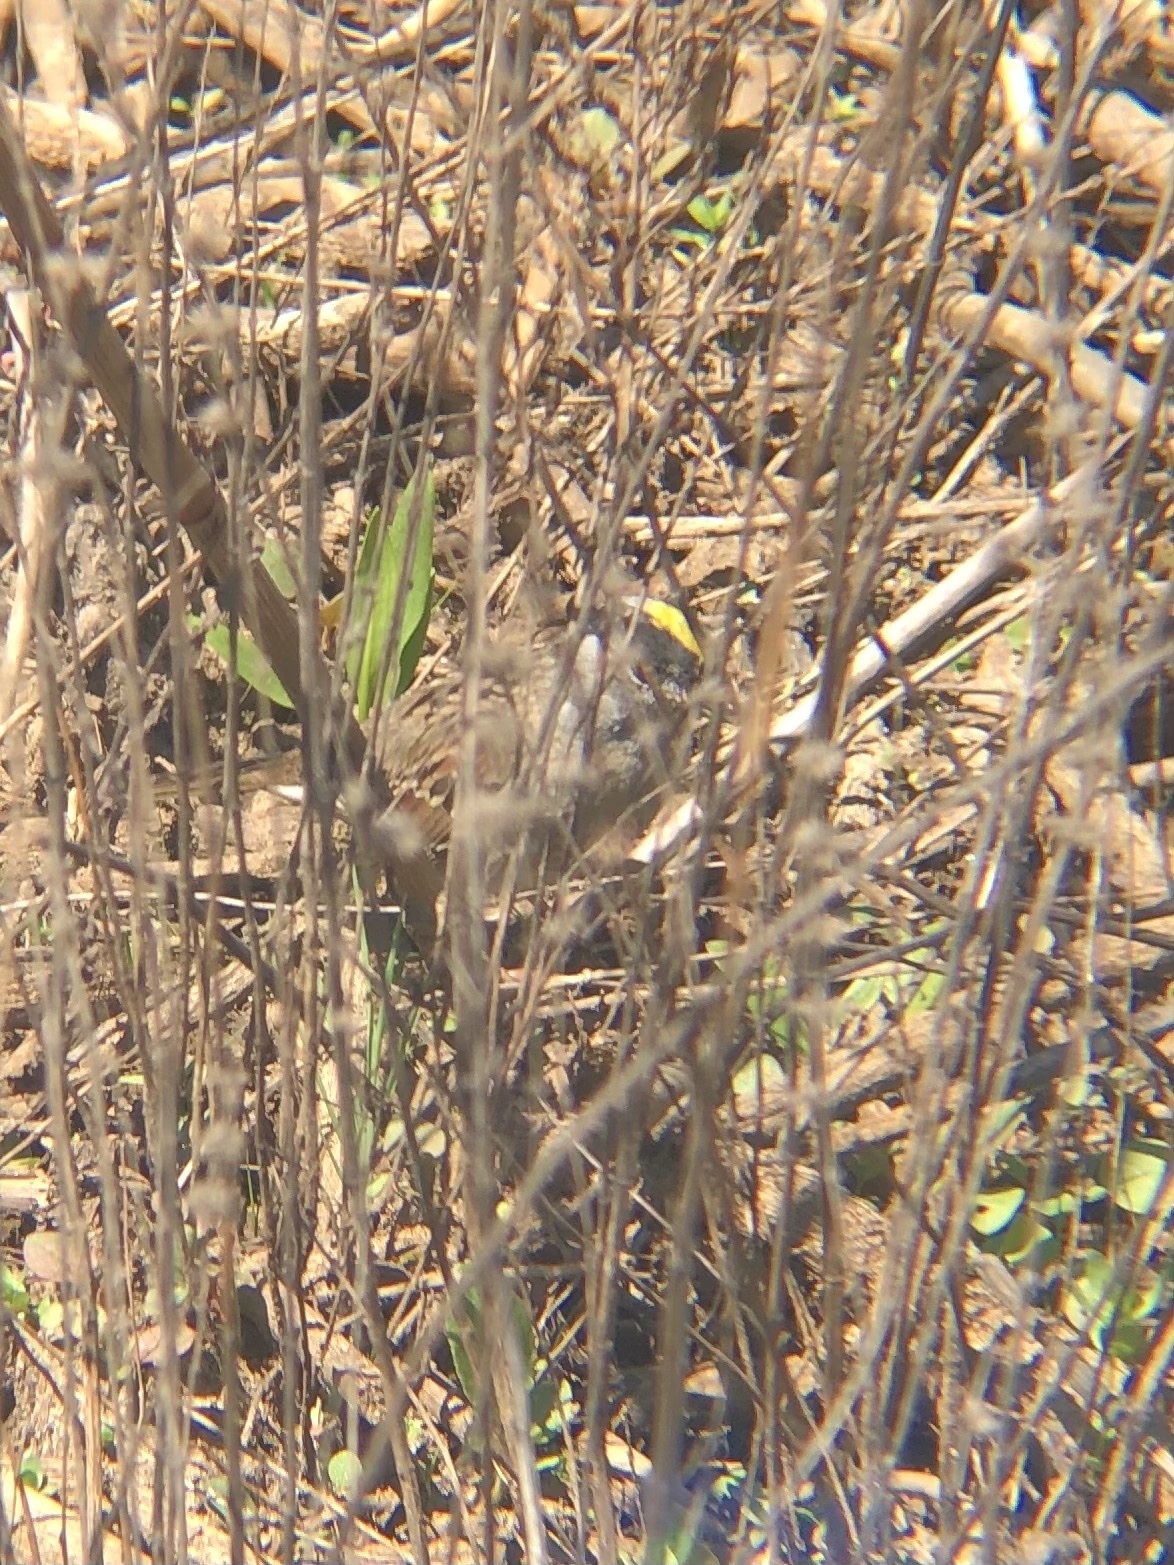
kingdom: Animalia
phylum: Chordata
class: Aves
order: Passeriformes
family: Passerellidae
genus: Zonotrichia
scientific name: Zonotrichia atricapilla
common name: Golden-crowned sparrow
